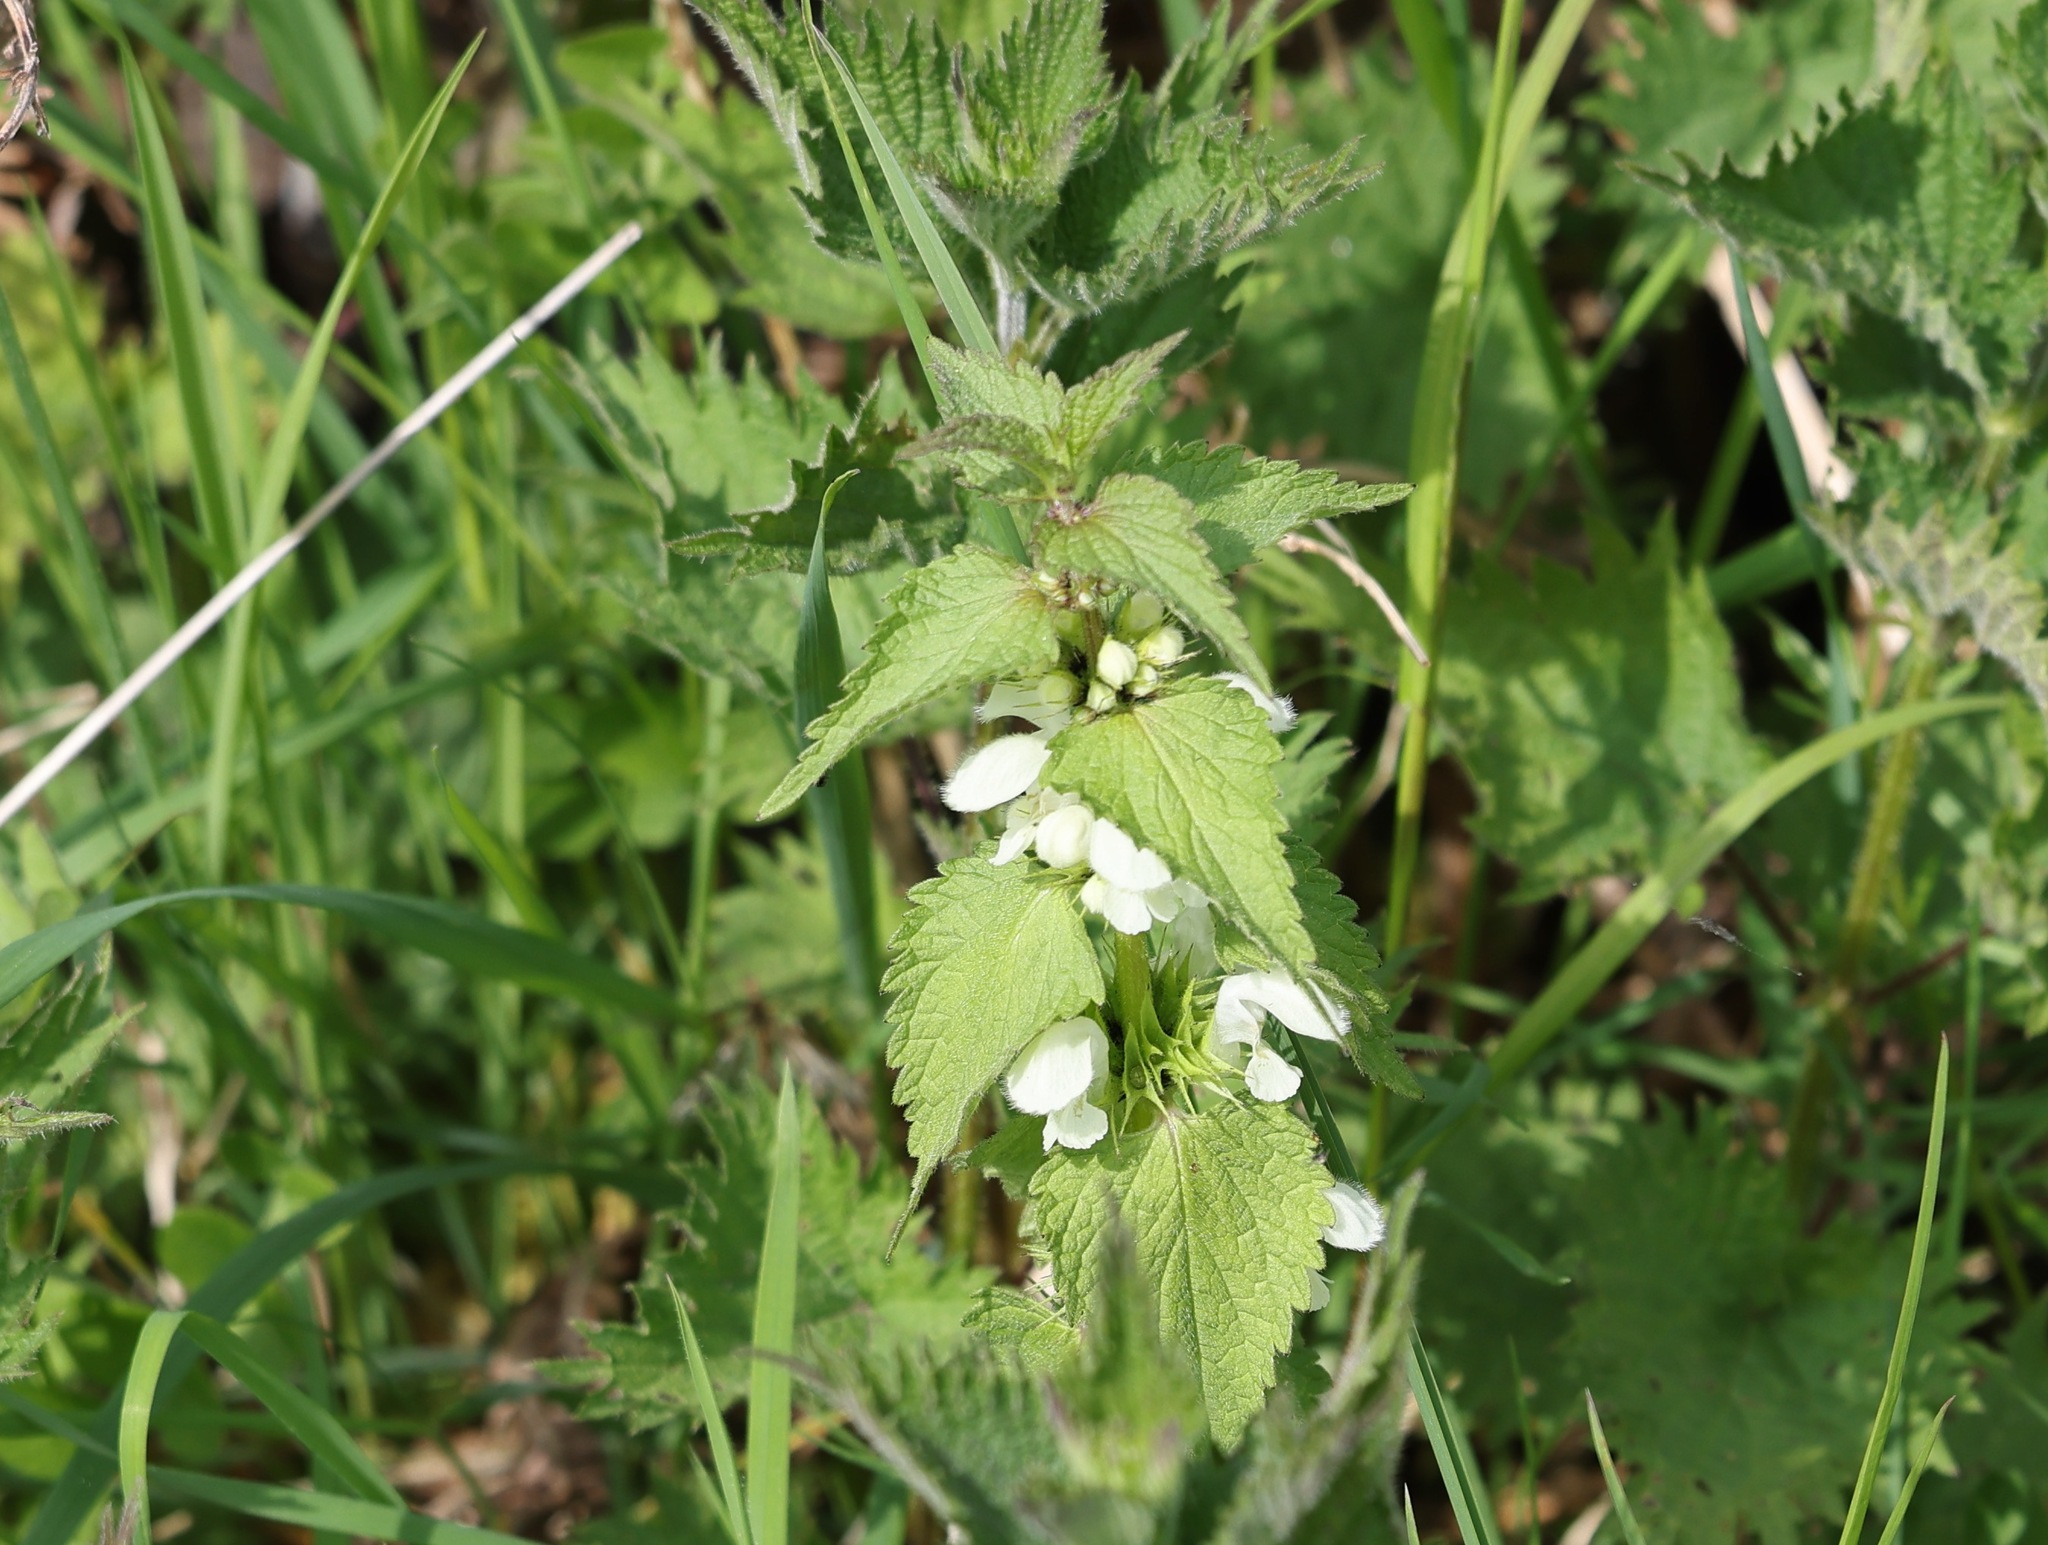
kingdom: Plantae
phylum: Tracheophyta
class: Magnoliopsida
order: Lamiales
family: Lamiaceae
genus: Lamium
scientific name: Lamium album
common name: White dead-nettle
